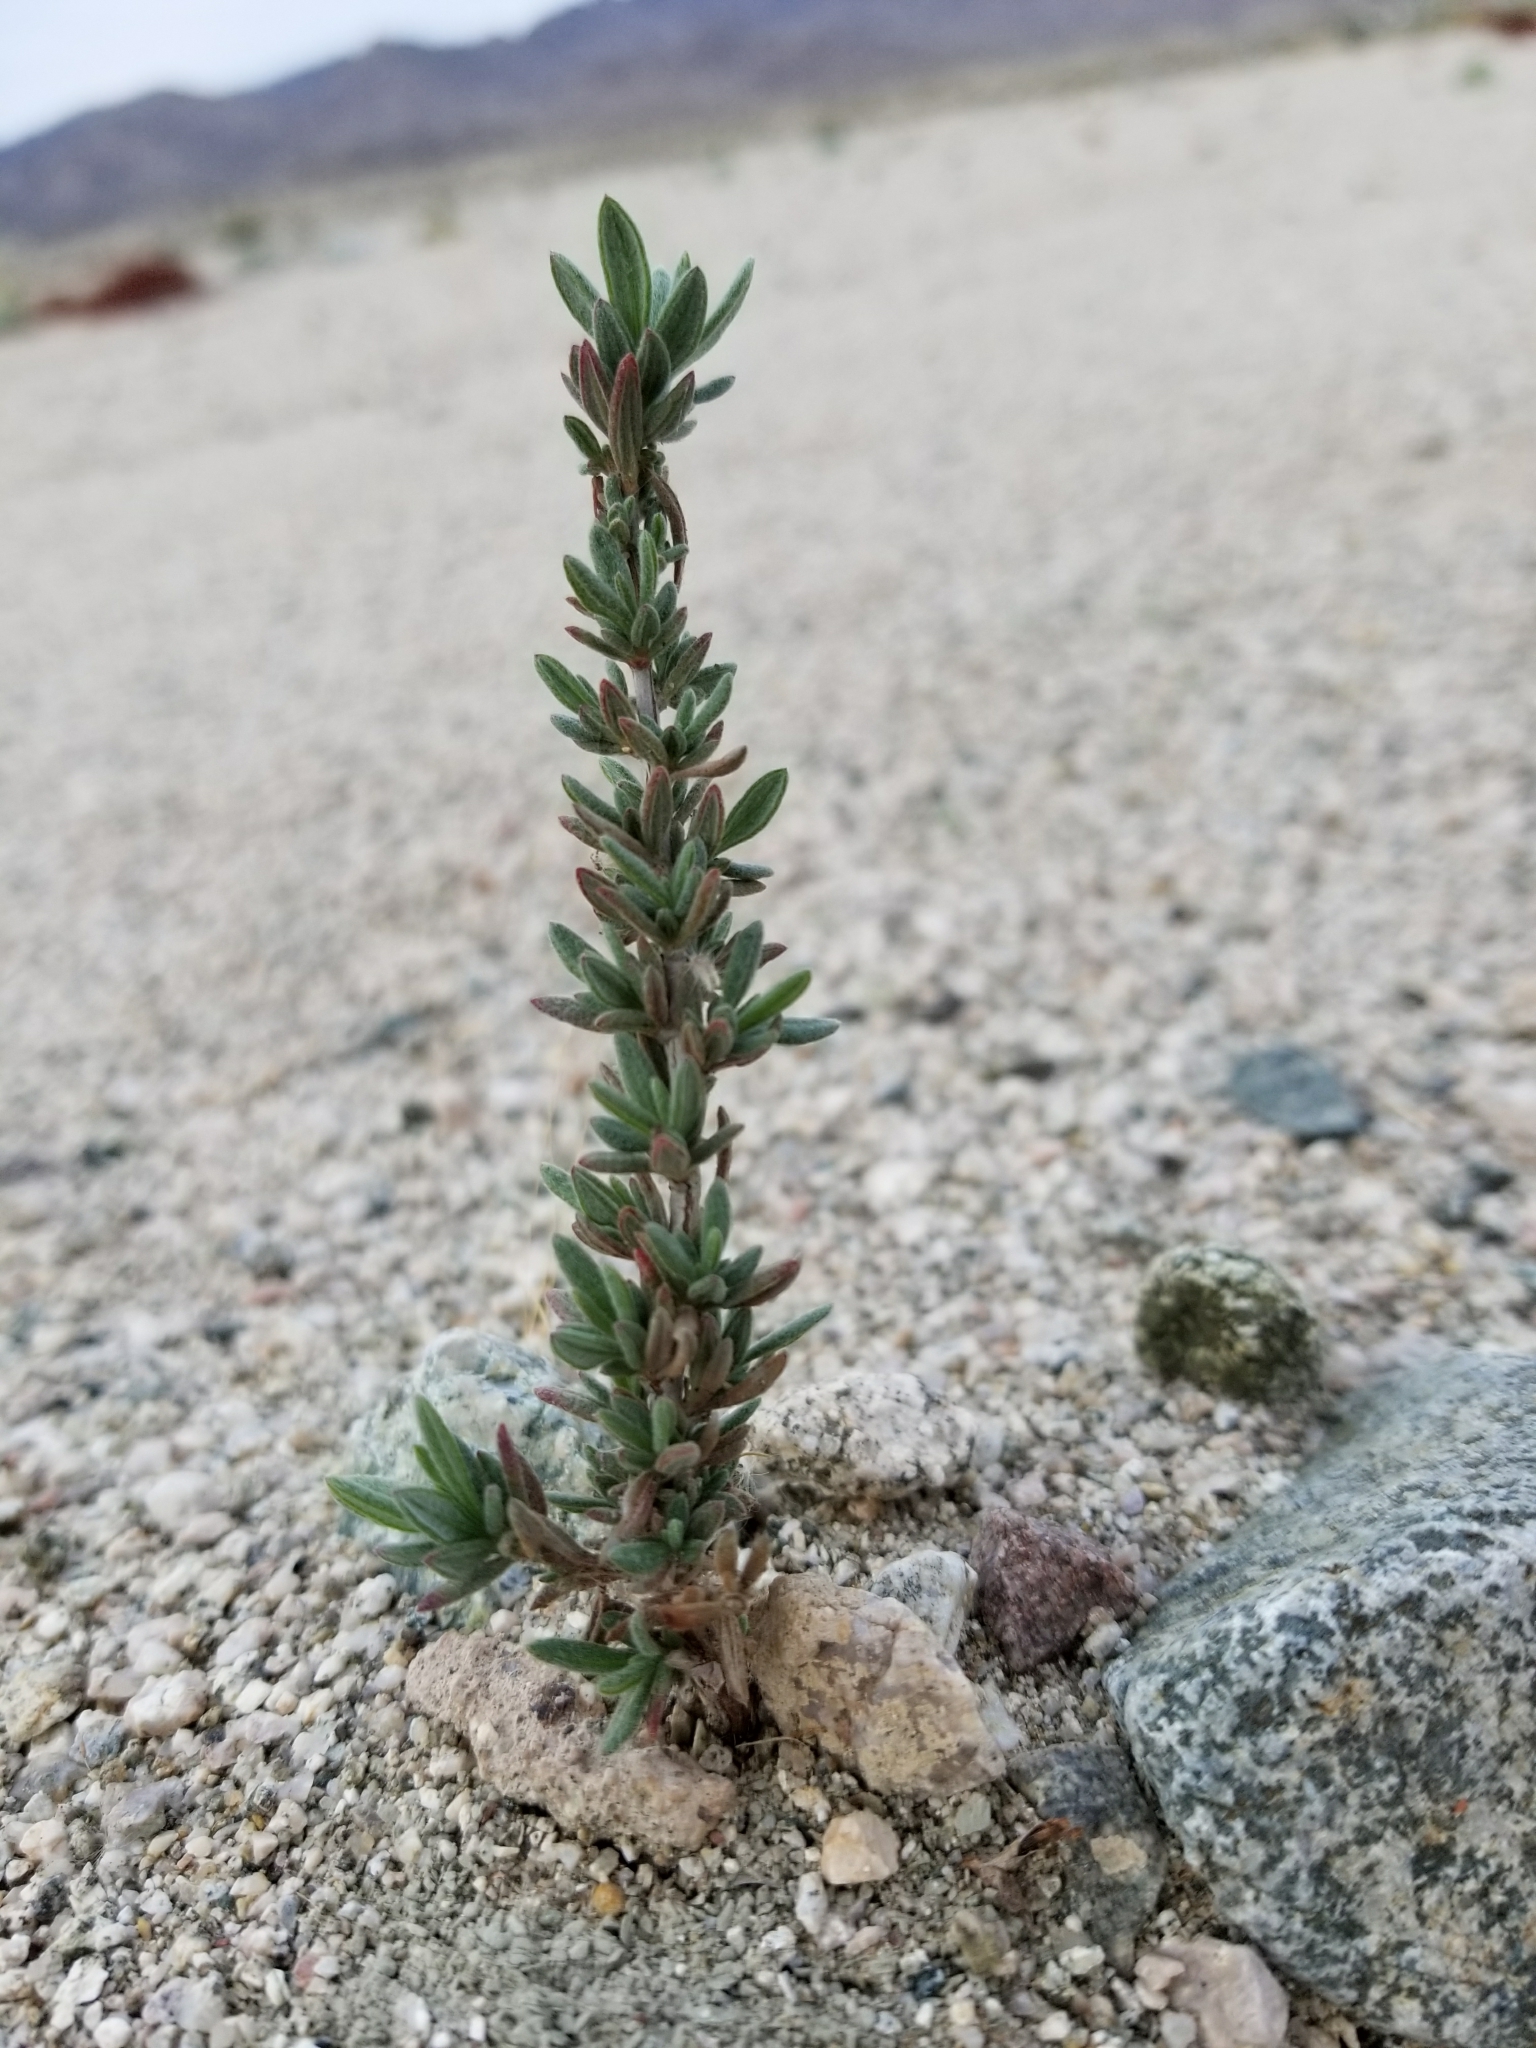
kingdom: Plantae
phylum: Tracheophyta
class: Magnoliopsida
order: Caryophyllales
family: Polygonaceae
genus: Eriogonum
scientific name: Eriogonum fasciculatum
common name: California wild buckwheat
